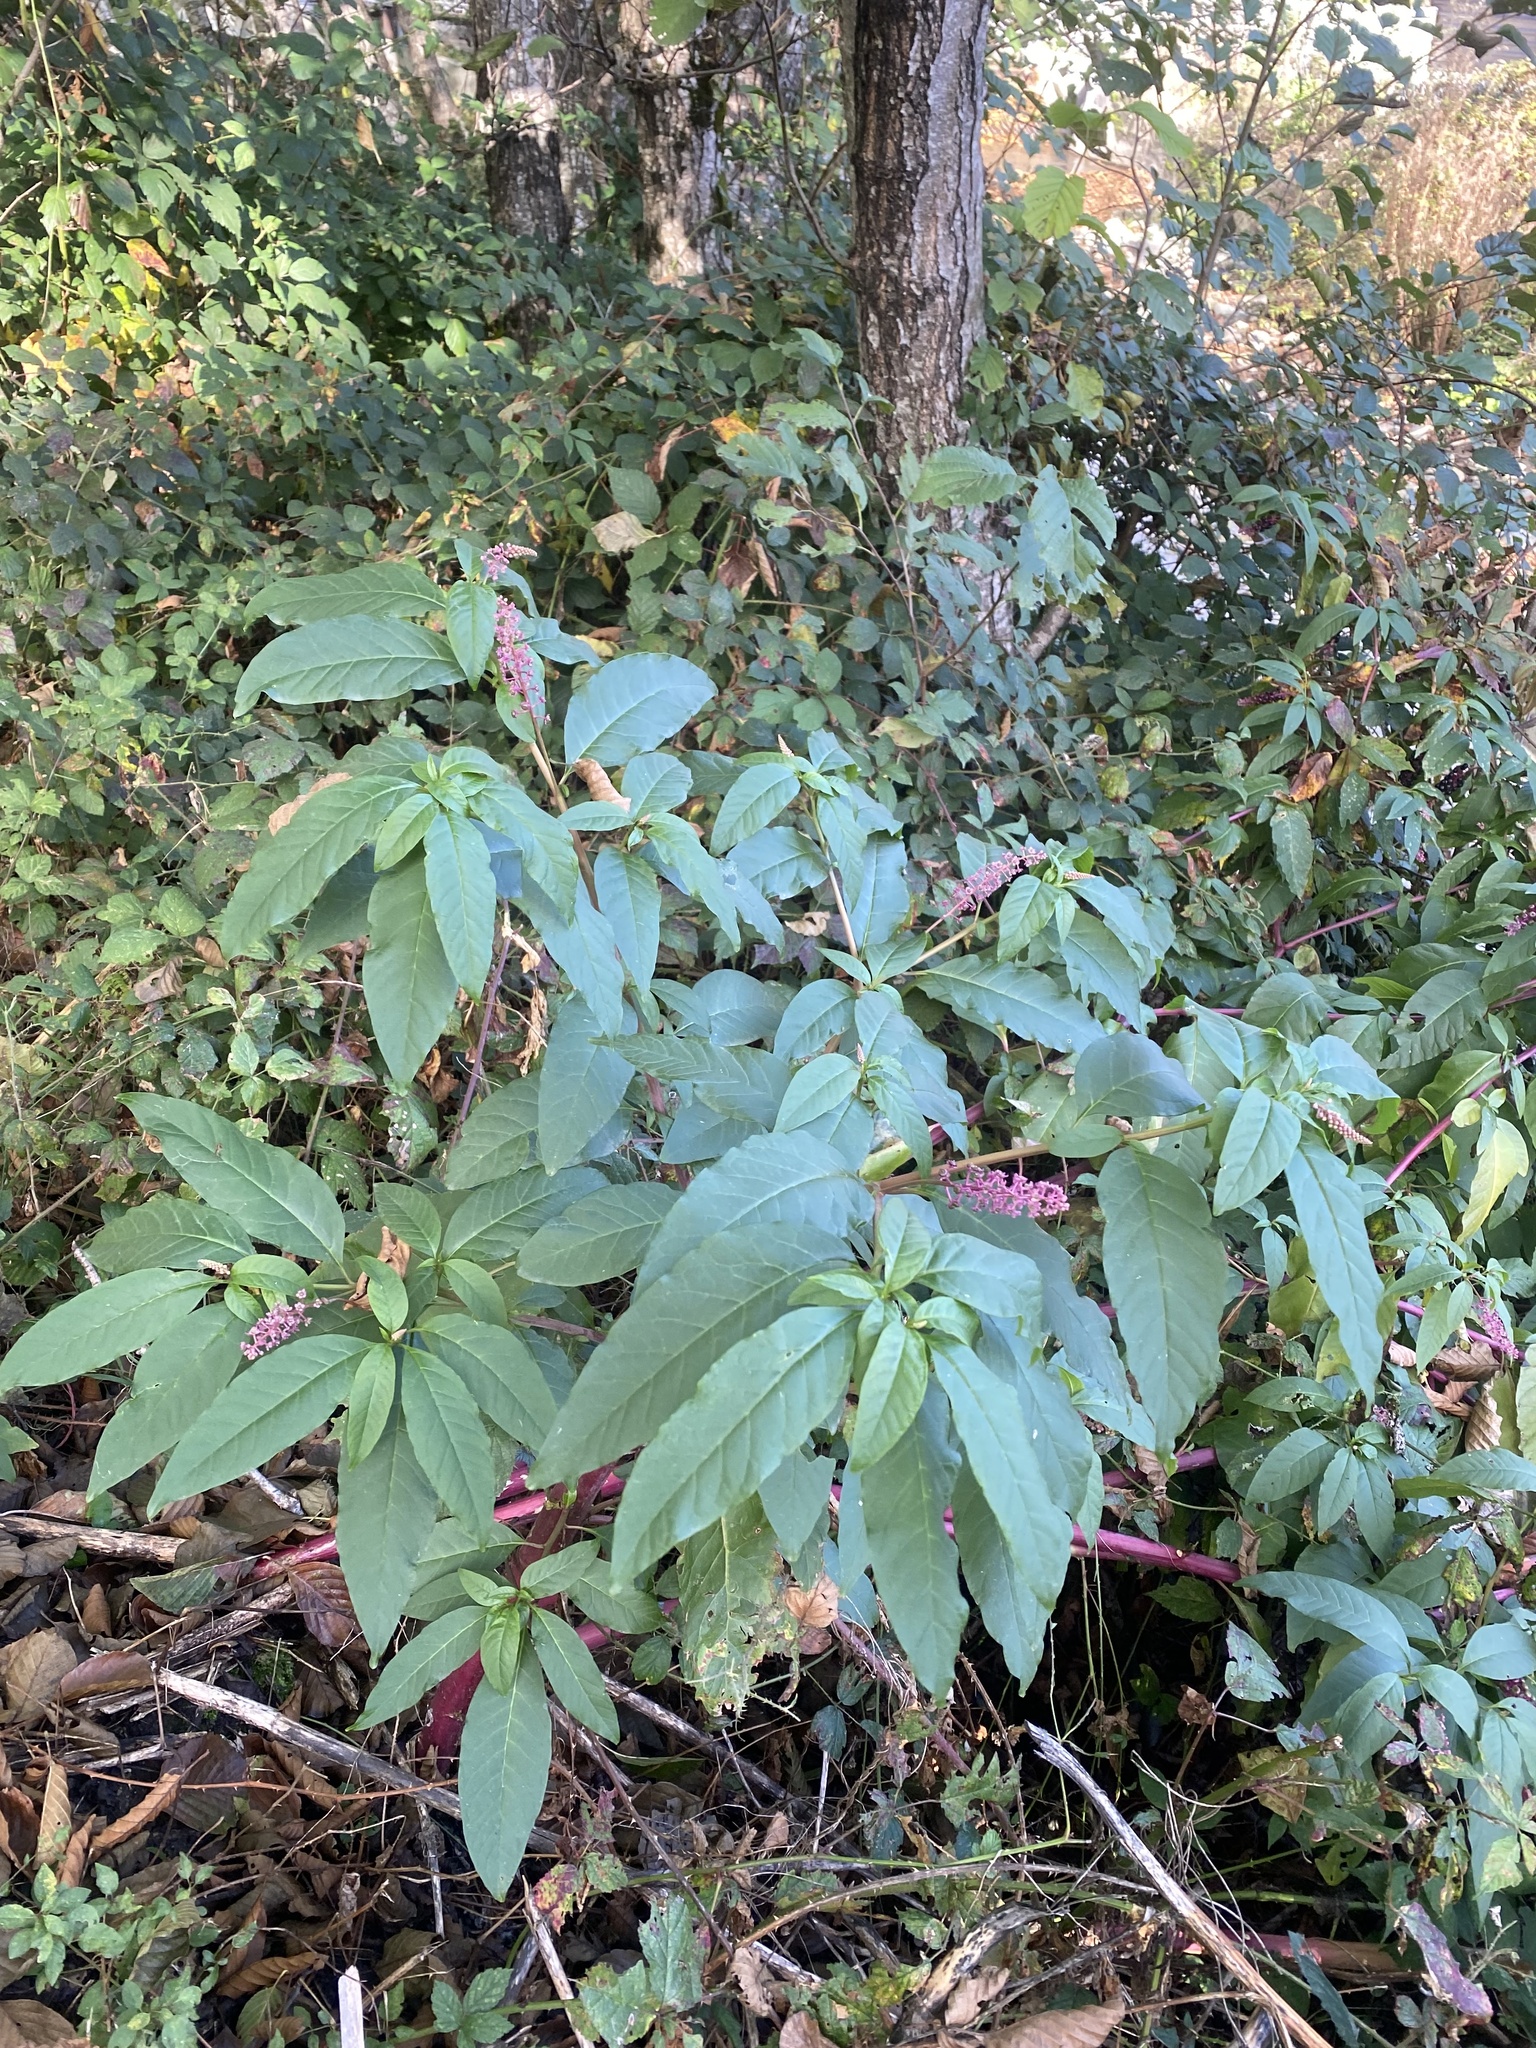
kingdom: Plantae
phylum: Tracheophyta
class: Magnoliopsida
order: Caryophyllales
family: Phytolaccaceae
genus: Phytolacca
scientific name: Phytolacca americana
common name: American pokeweed
